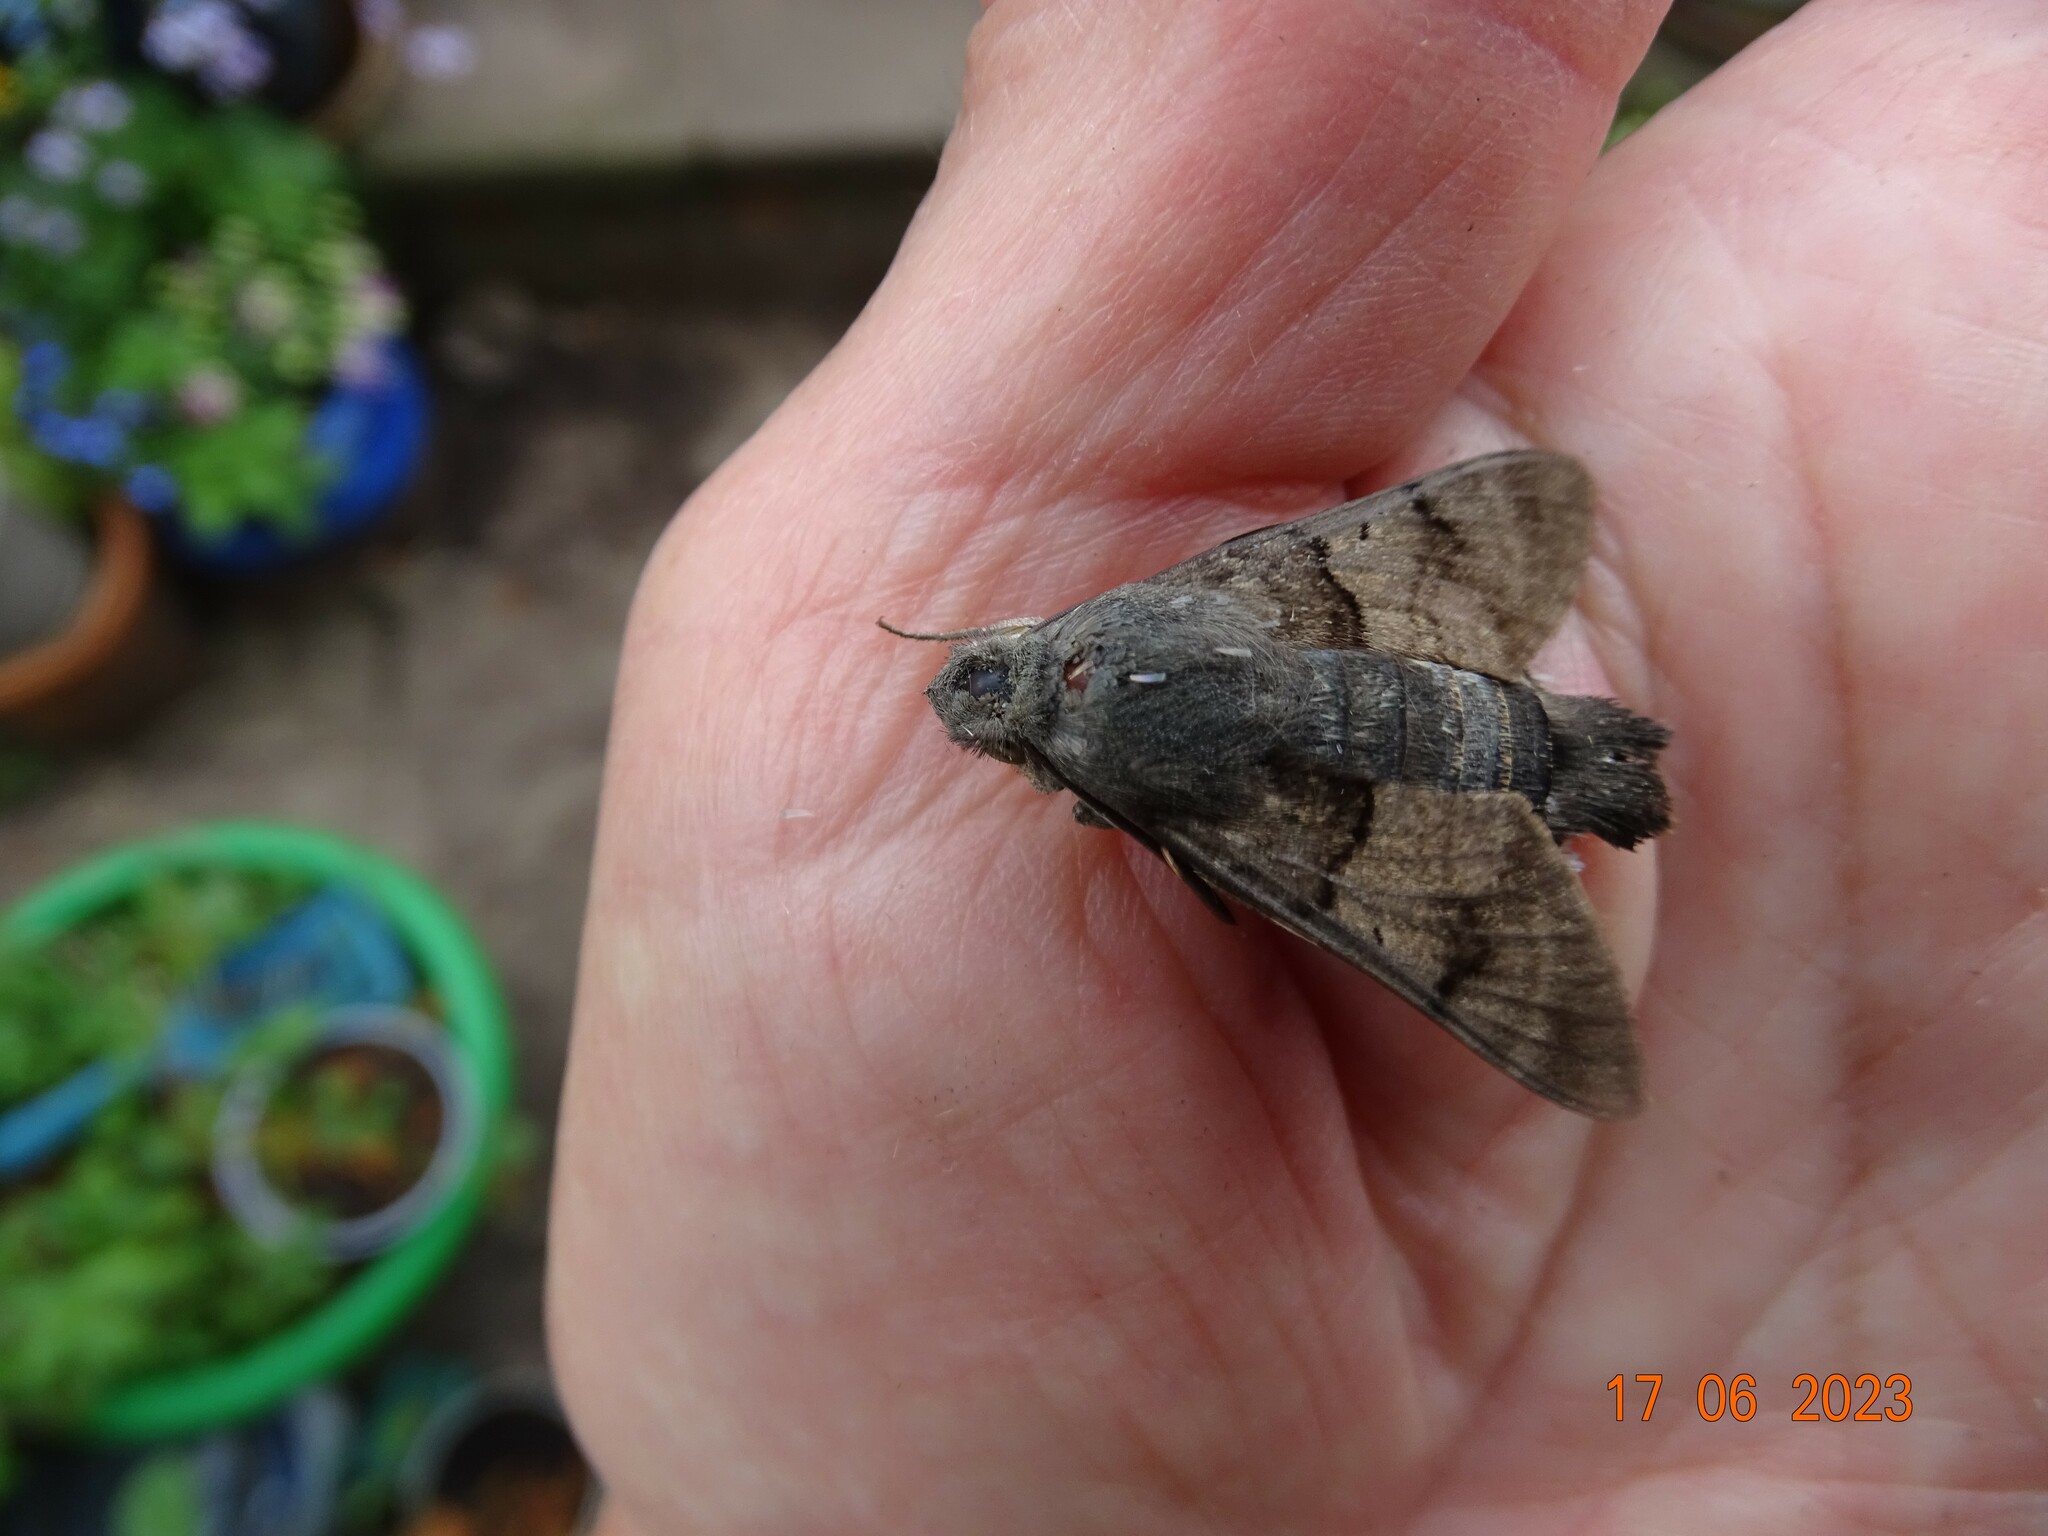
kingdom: Animalia
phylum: Arthropoda
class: Insecta
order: Lepidoptera
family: Sphingidae
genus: Macroglossum
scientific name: Macroglossum stellatarum
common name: Humming-bird hawk-moth
